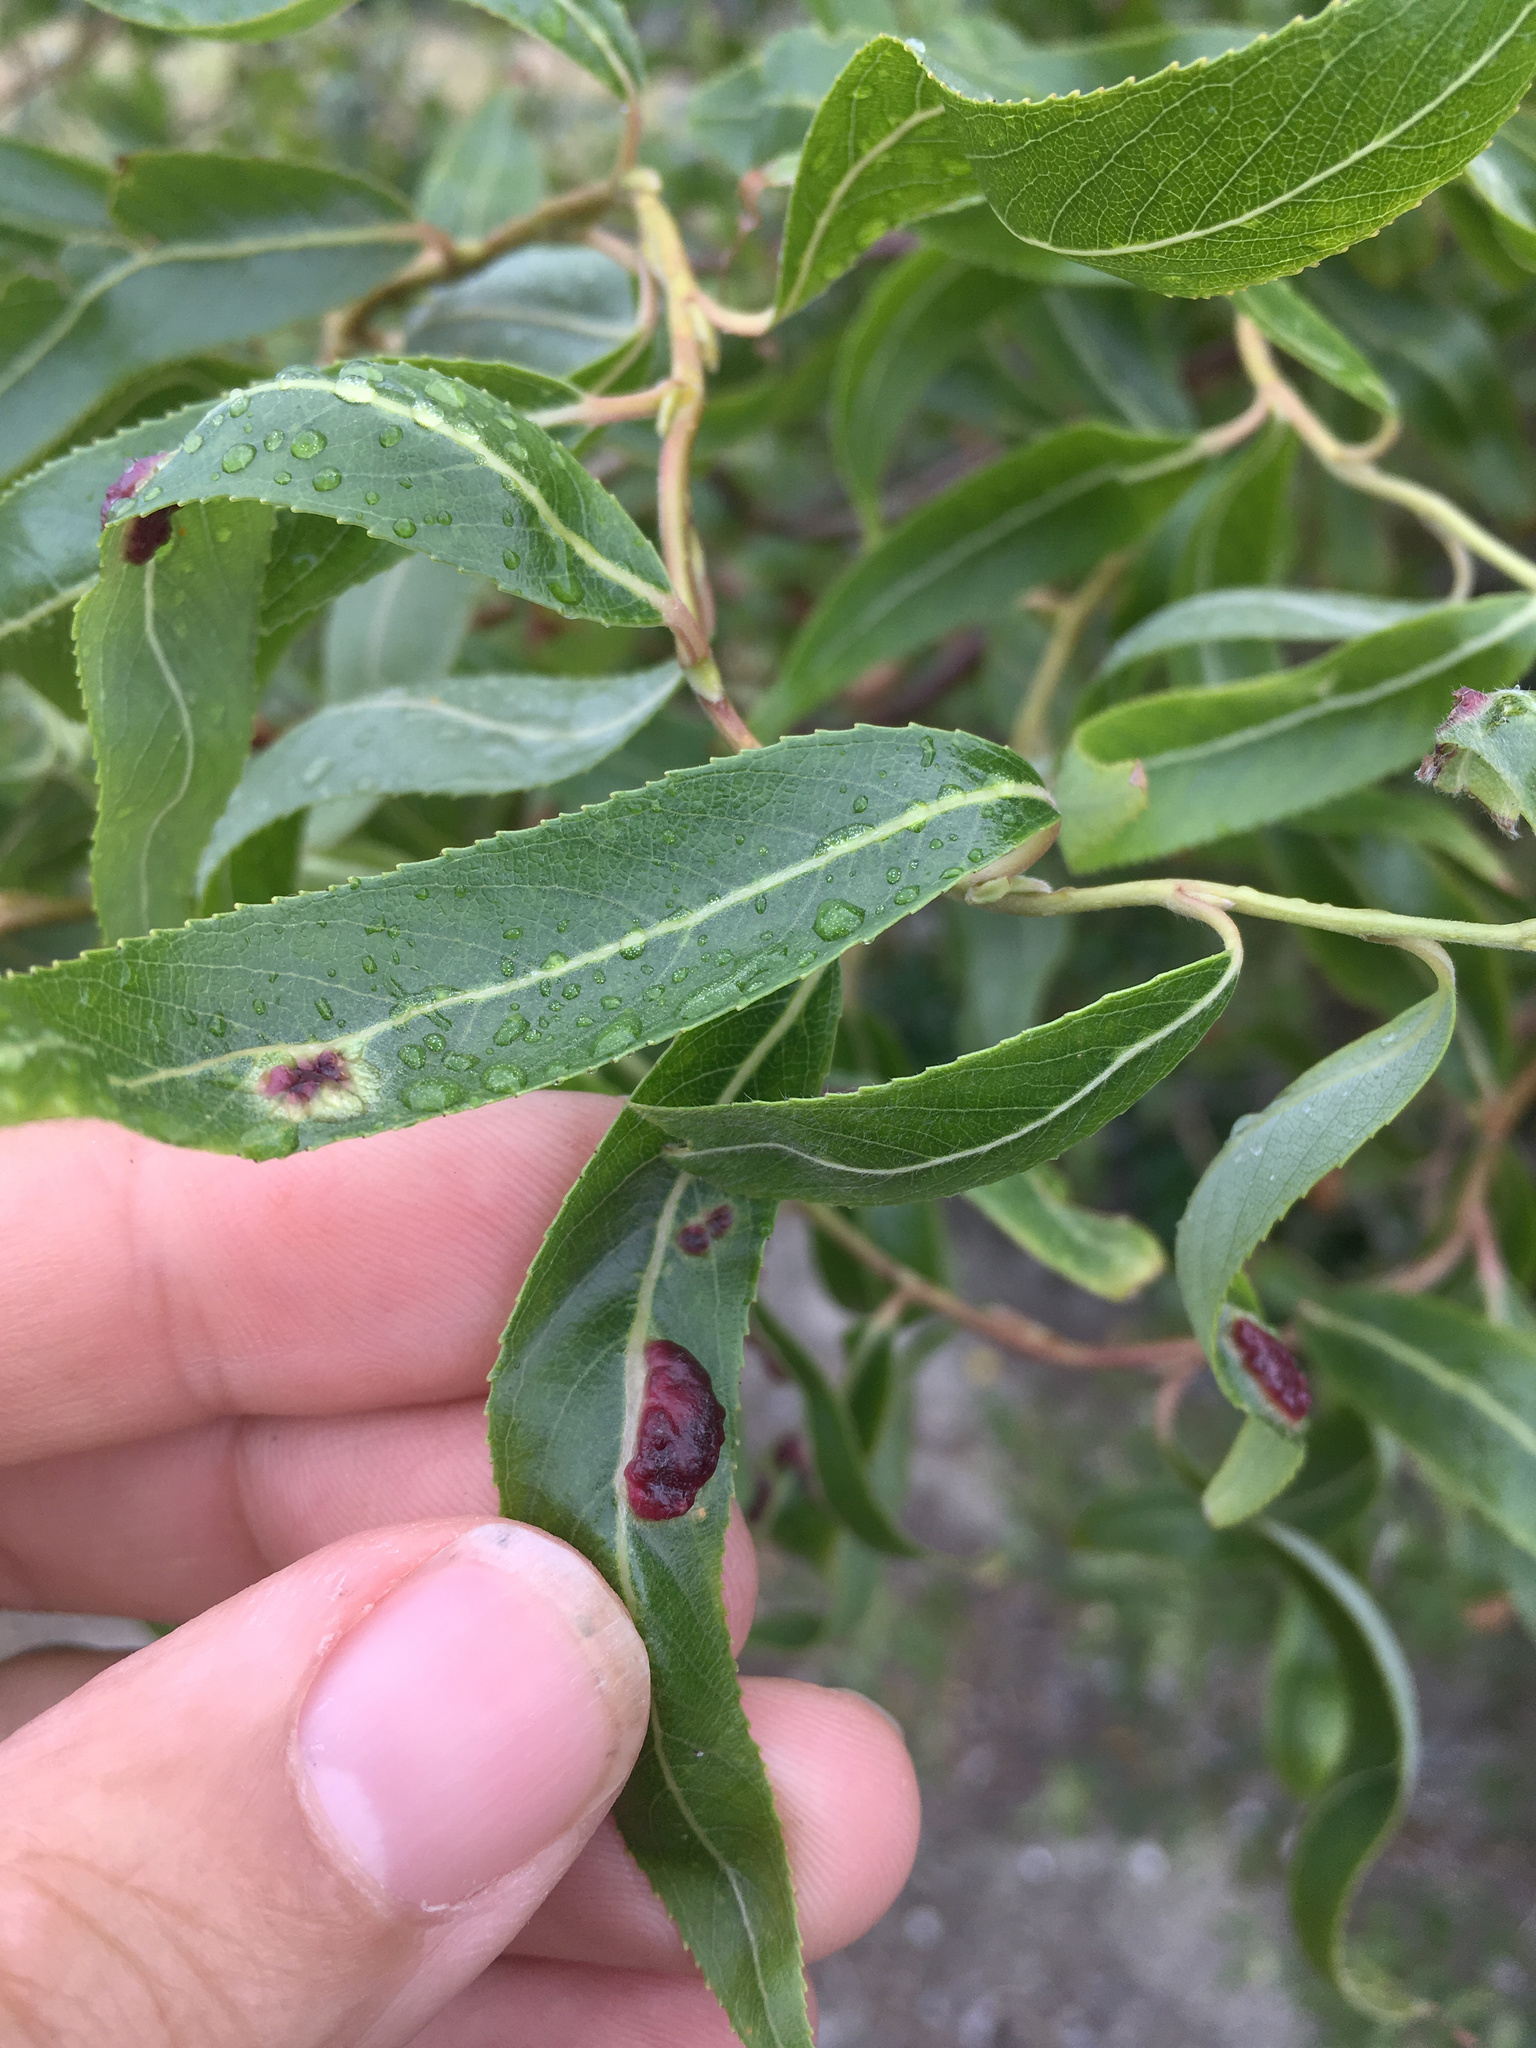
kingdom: Animalia
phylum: Arthropoda
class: Insecta
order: Hymenoptera
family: Tenthredinidae
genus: Pontania
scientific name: Pontania proxima
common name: Common sawfly
